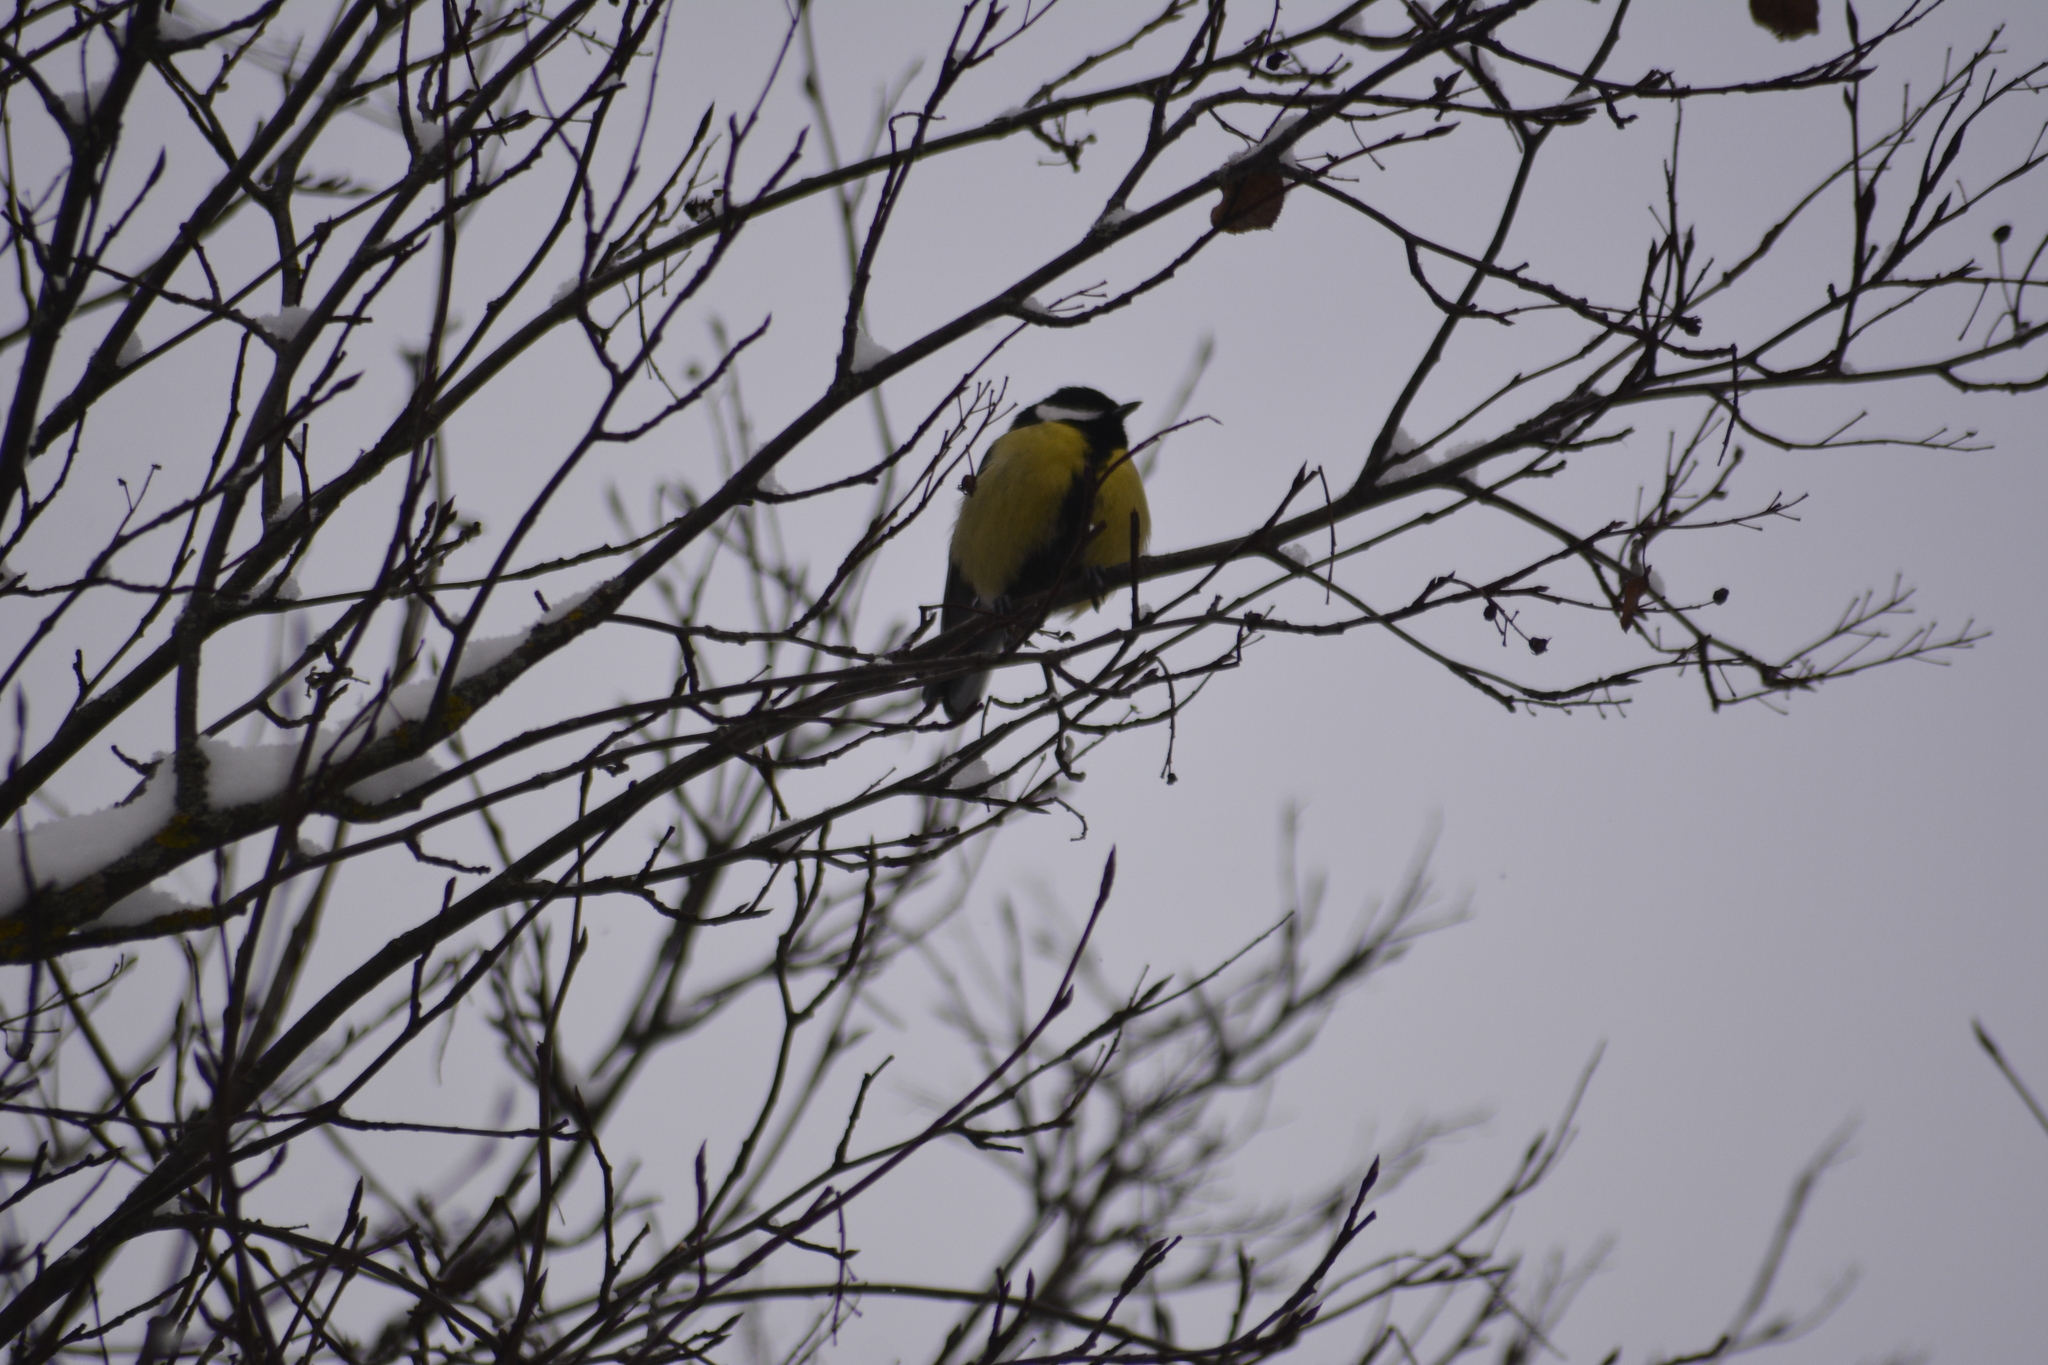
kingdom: Animalia
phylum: Chordata
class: Aves
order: Passeriformes
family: Paridae
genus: Parus
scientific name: Parus major
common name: Great tit
